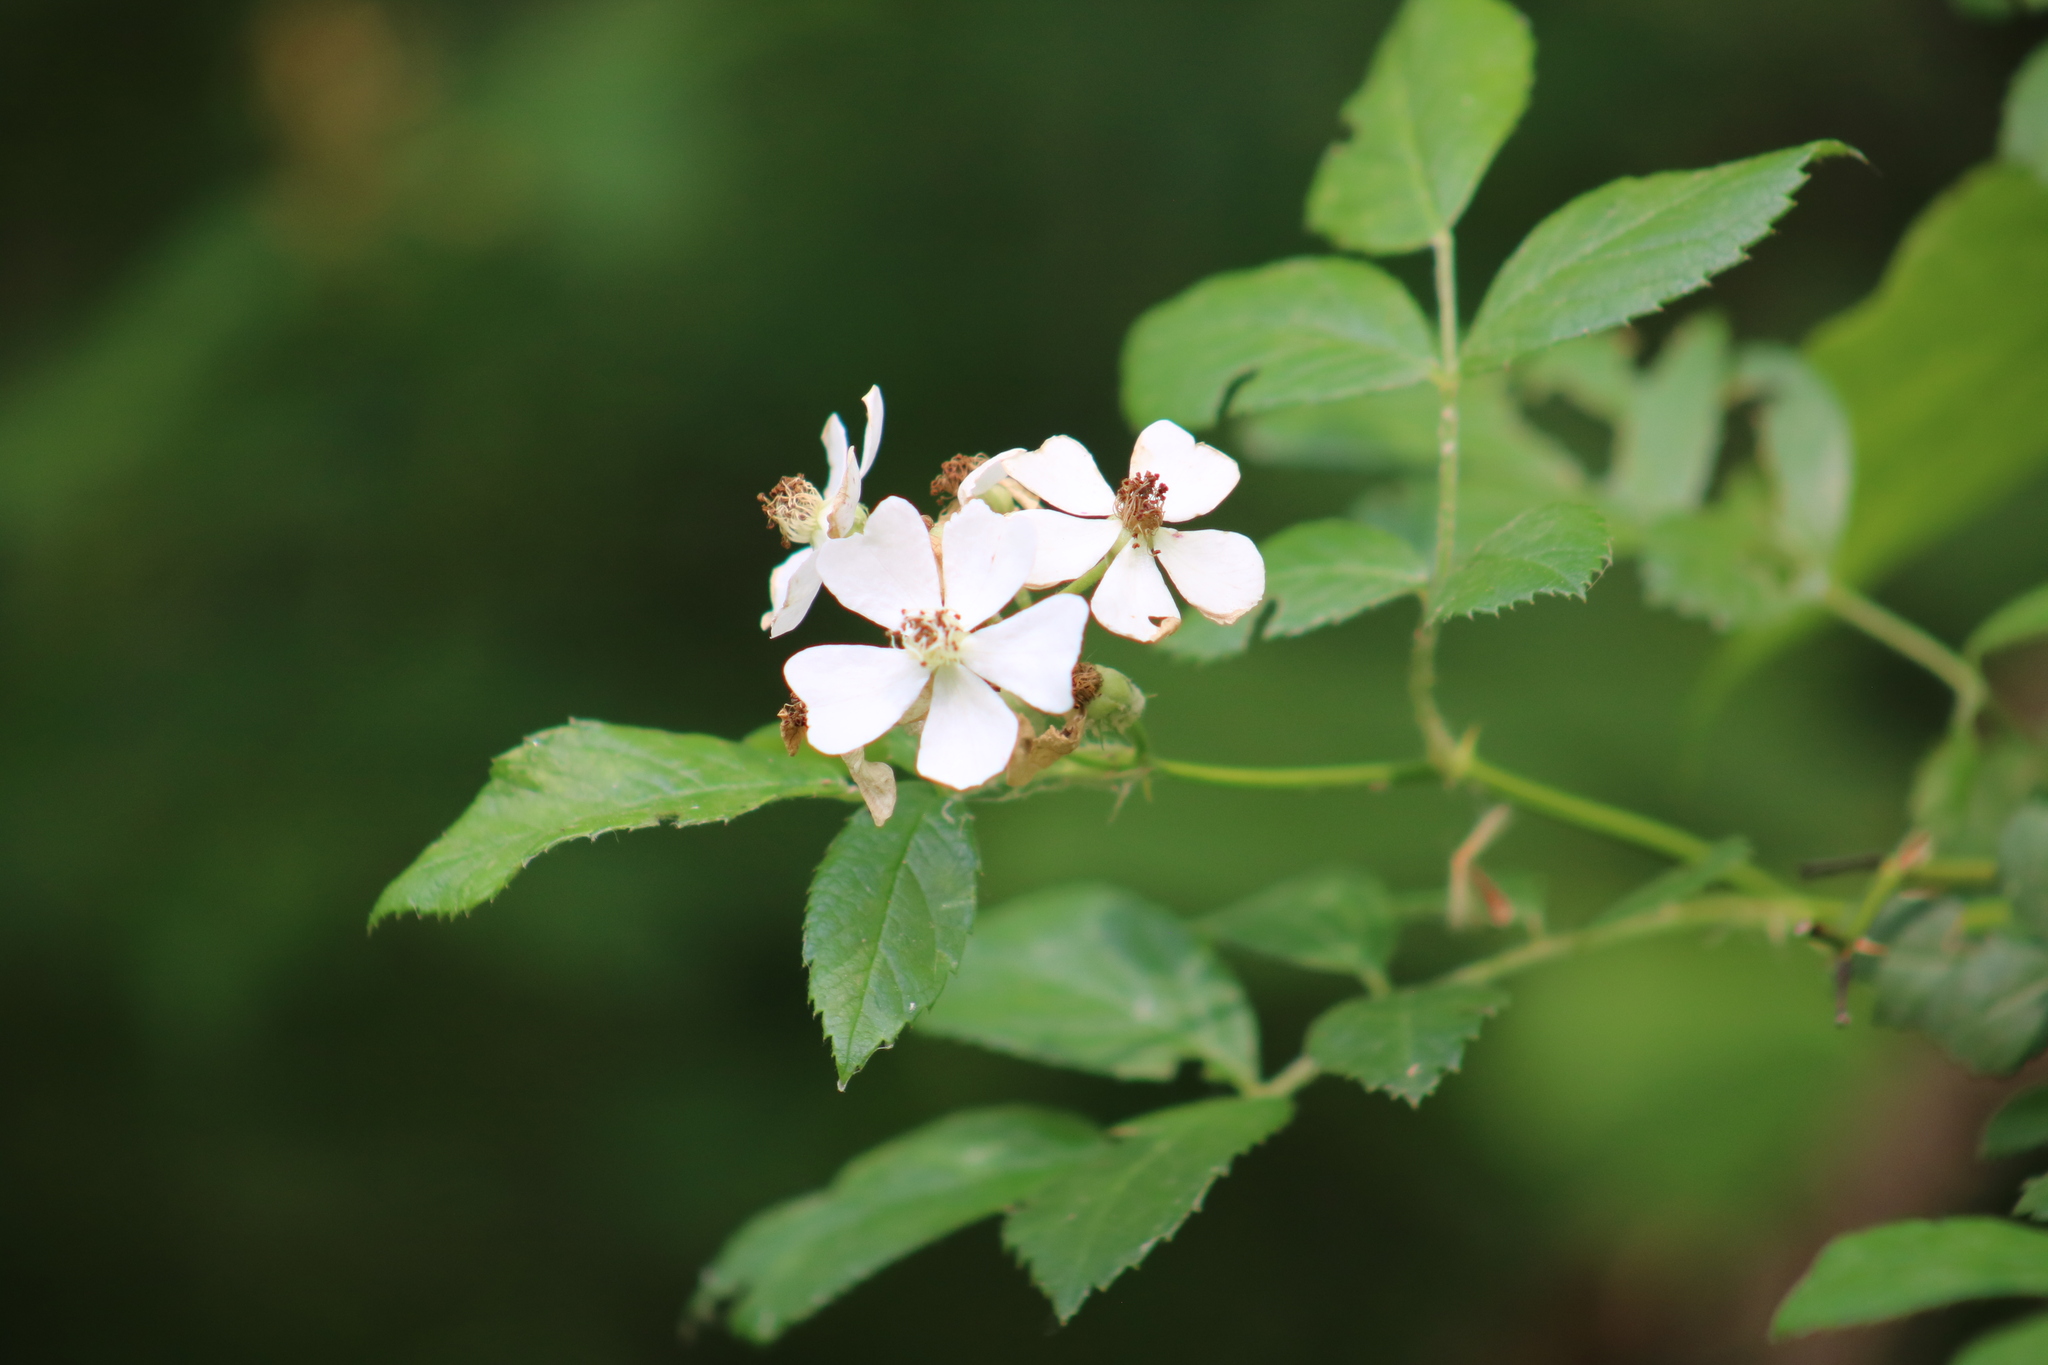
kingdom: Plantae
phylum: Tracheophyta
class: Magnoliopsida
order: Rosales
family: Rosaceae
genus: Rosa
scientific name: Rosa multiflora
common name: Multiflora rose
